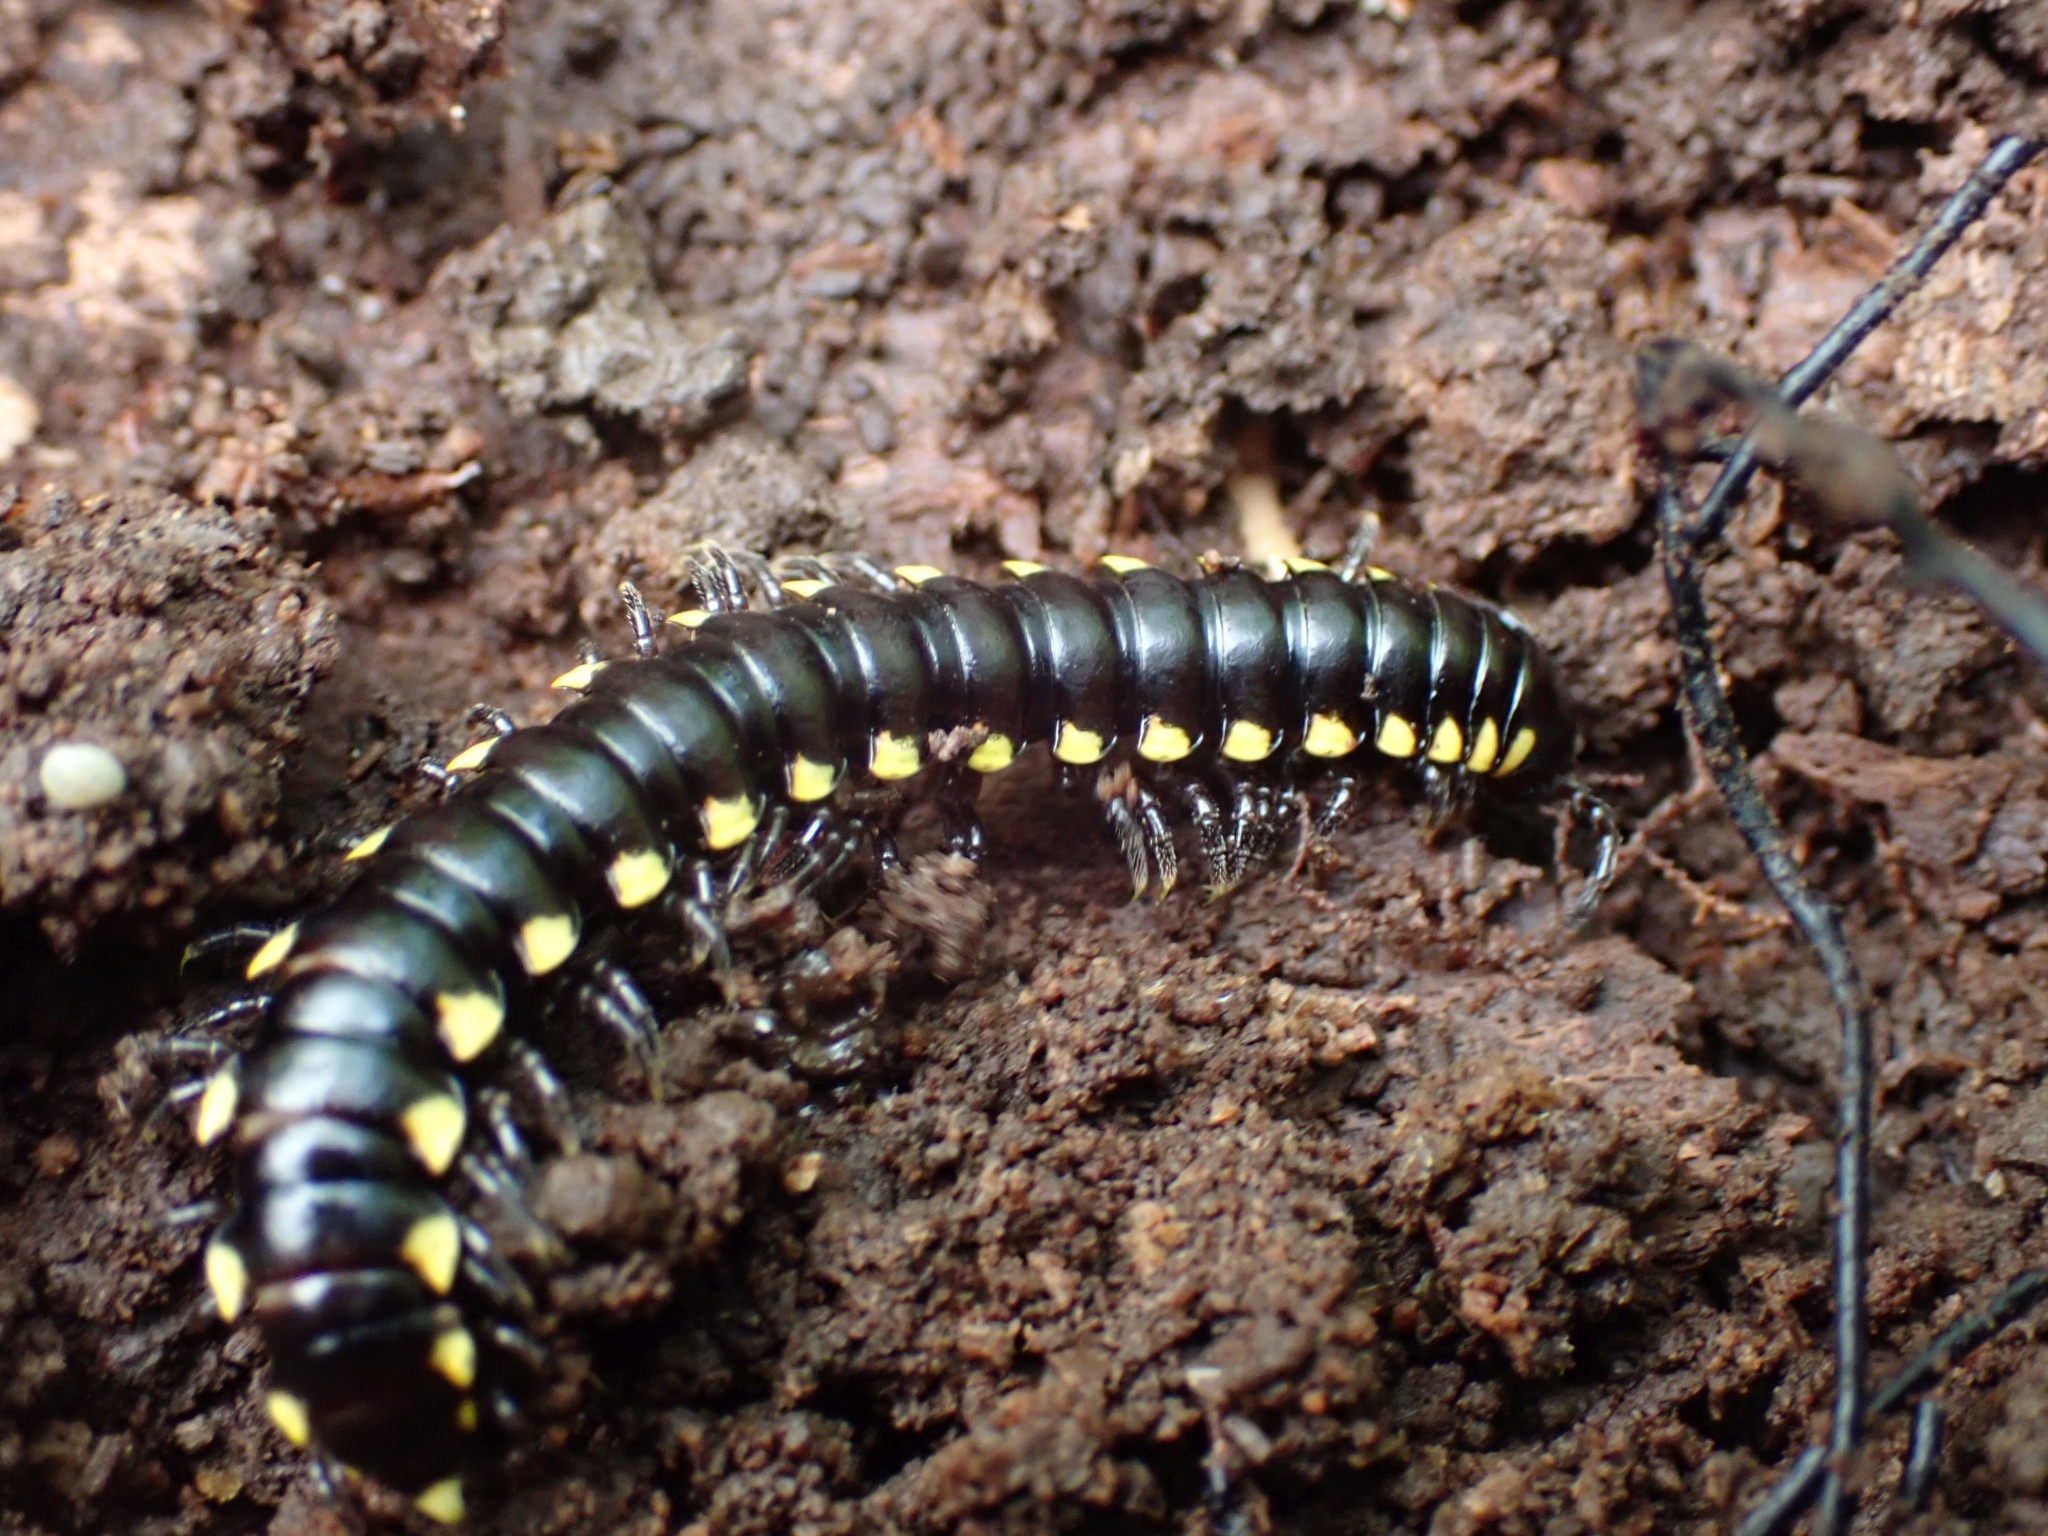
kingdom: Animalia
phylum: Arthropoda
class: Diplopoda
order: Polydesmida
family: Xystodesmidae
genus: Harpaphe
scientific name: Harpaphe haydeniana
